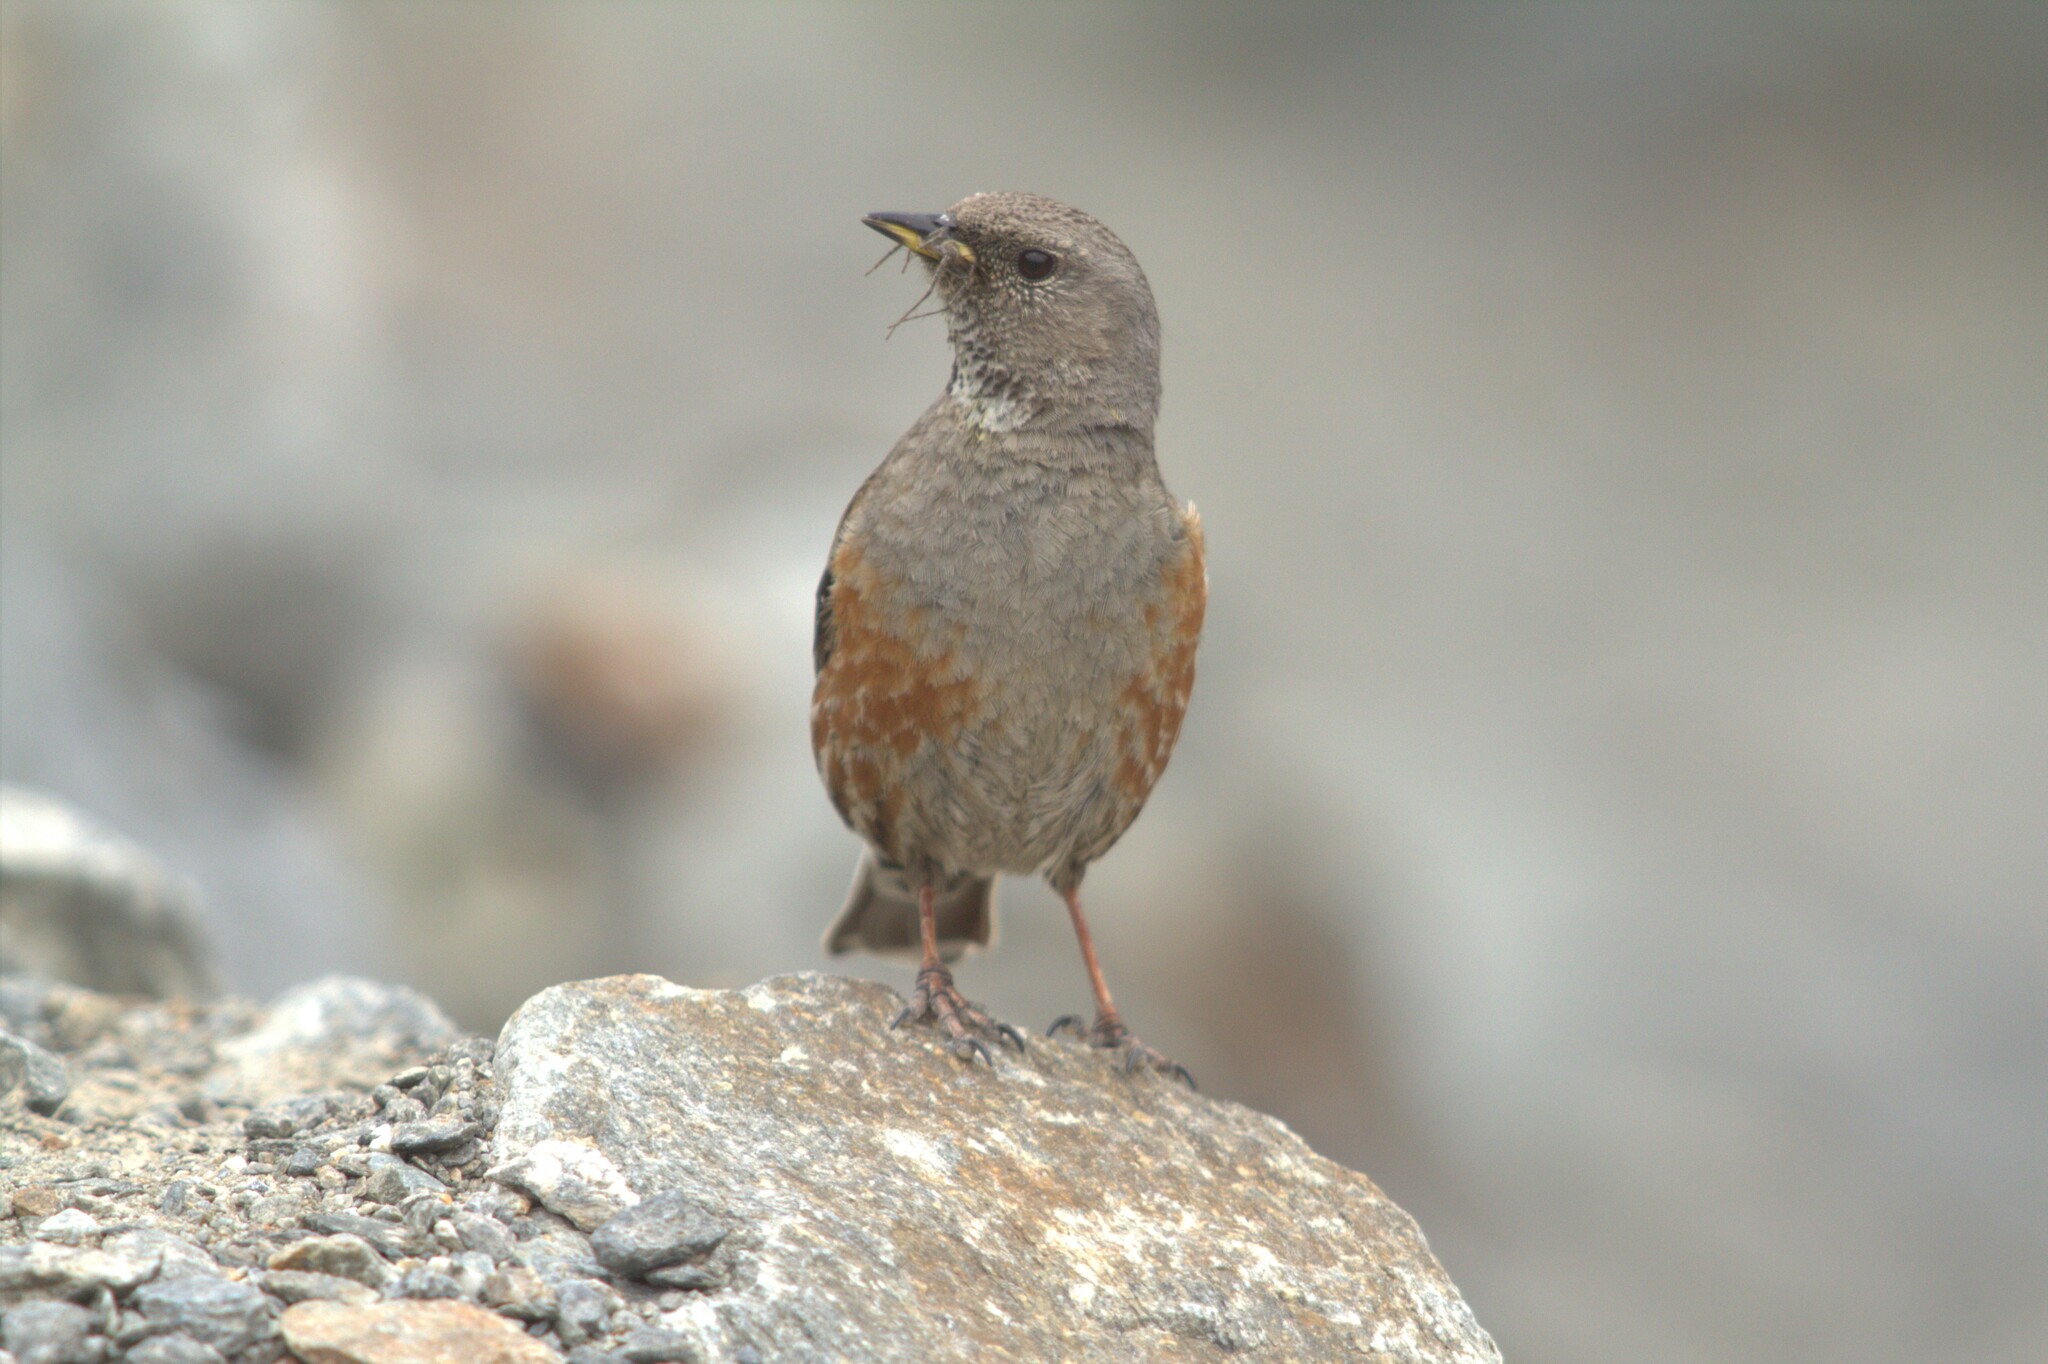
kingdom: Animalia
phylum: Chordata
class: Aves
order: Passeriformes
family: Prunellidae
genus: Prunella
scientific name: Prunella collaris
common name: Alpine accentor
